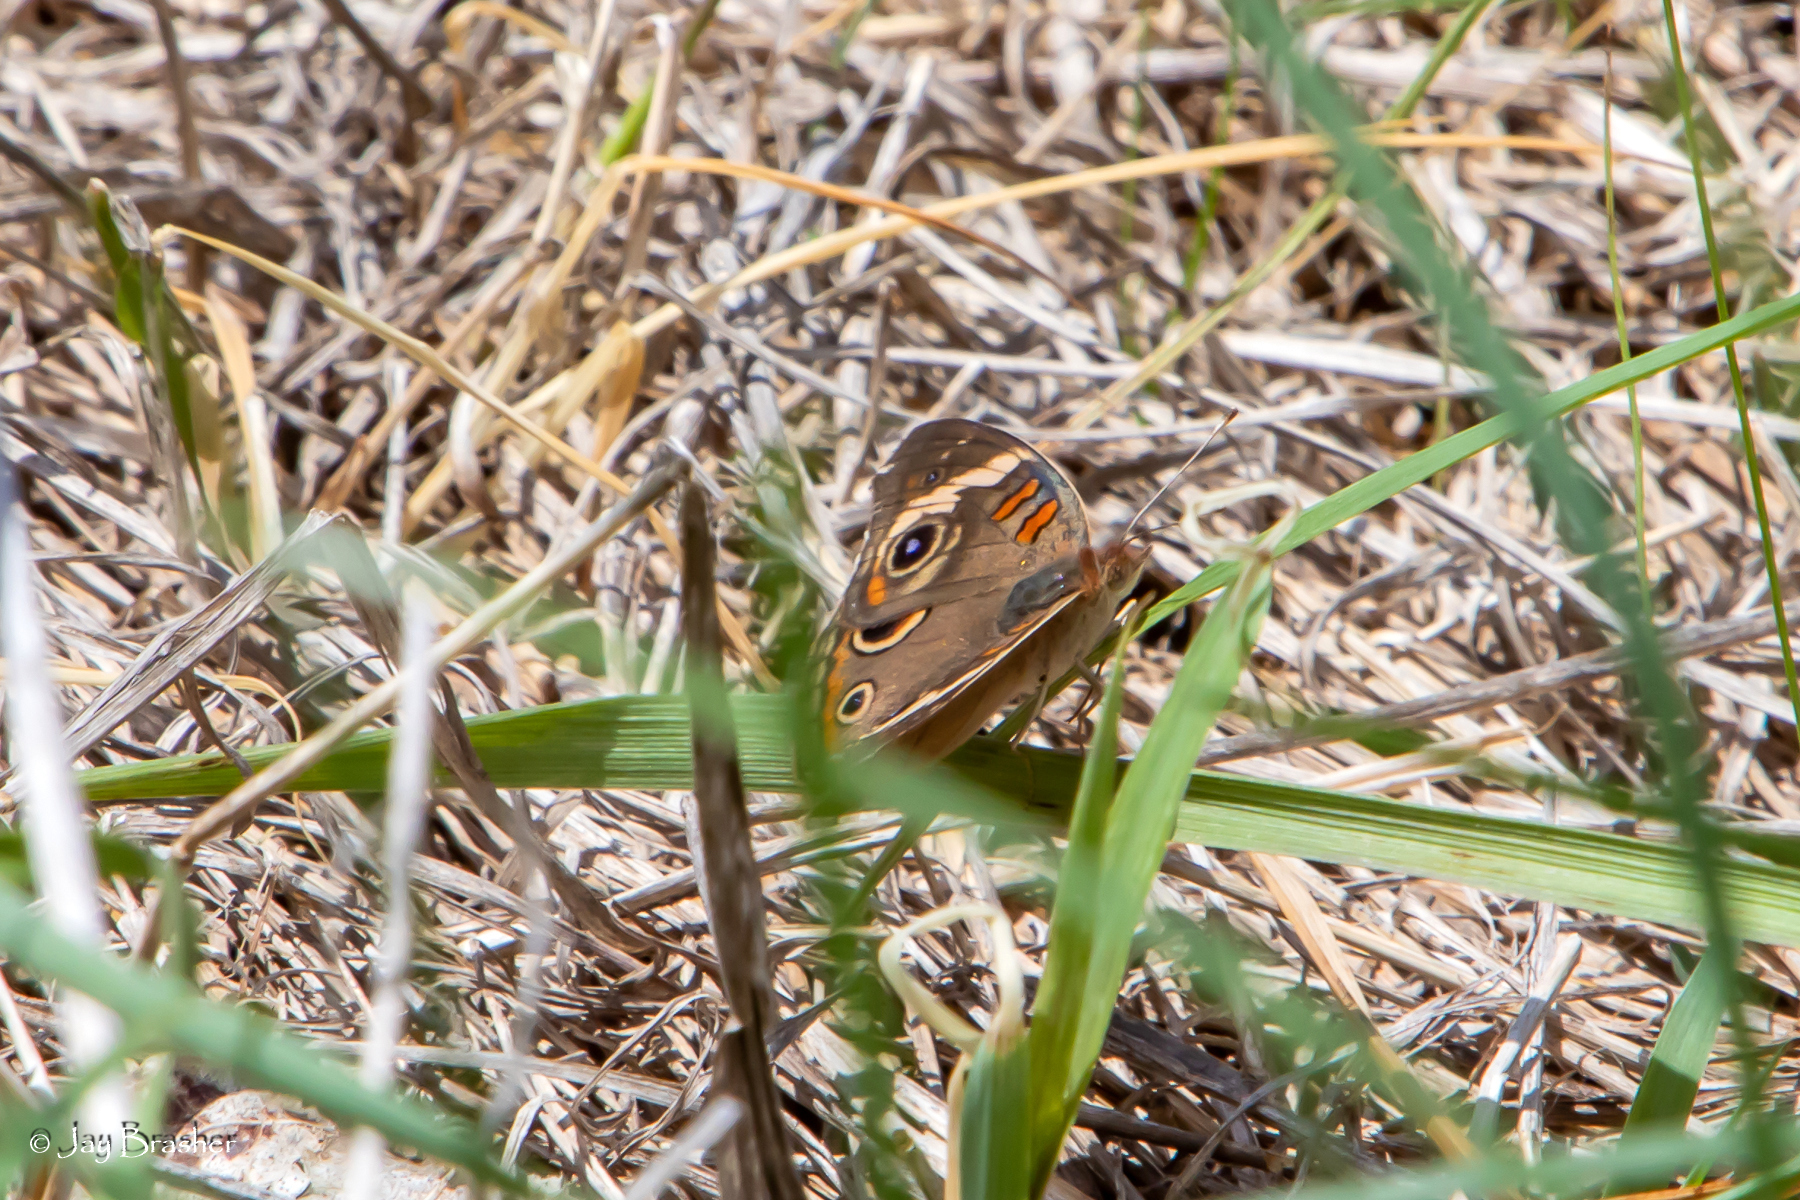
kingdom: Animalia
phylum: Arthropoda
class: Insecta
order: Lepidoptera
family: Nymphalidae
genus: Junonia
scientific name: Junonia coenia
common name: Common buckeye
